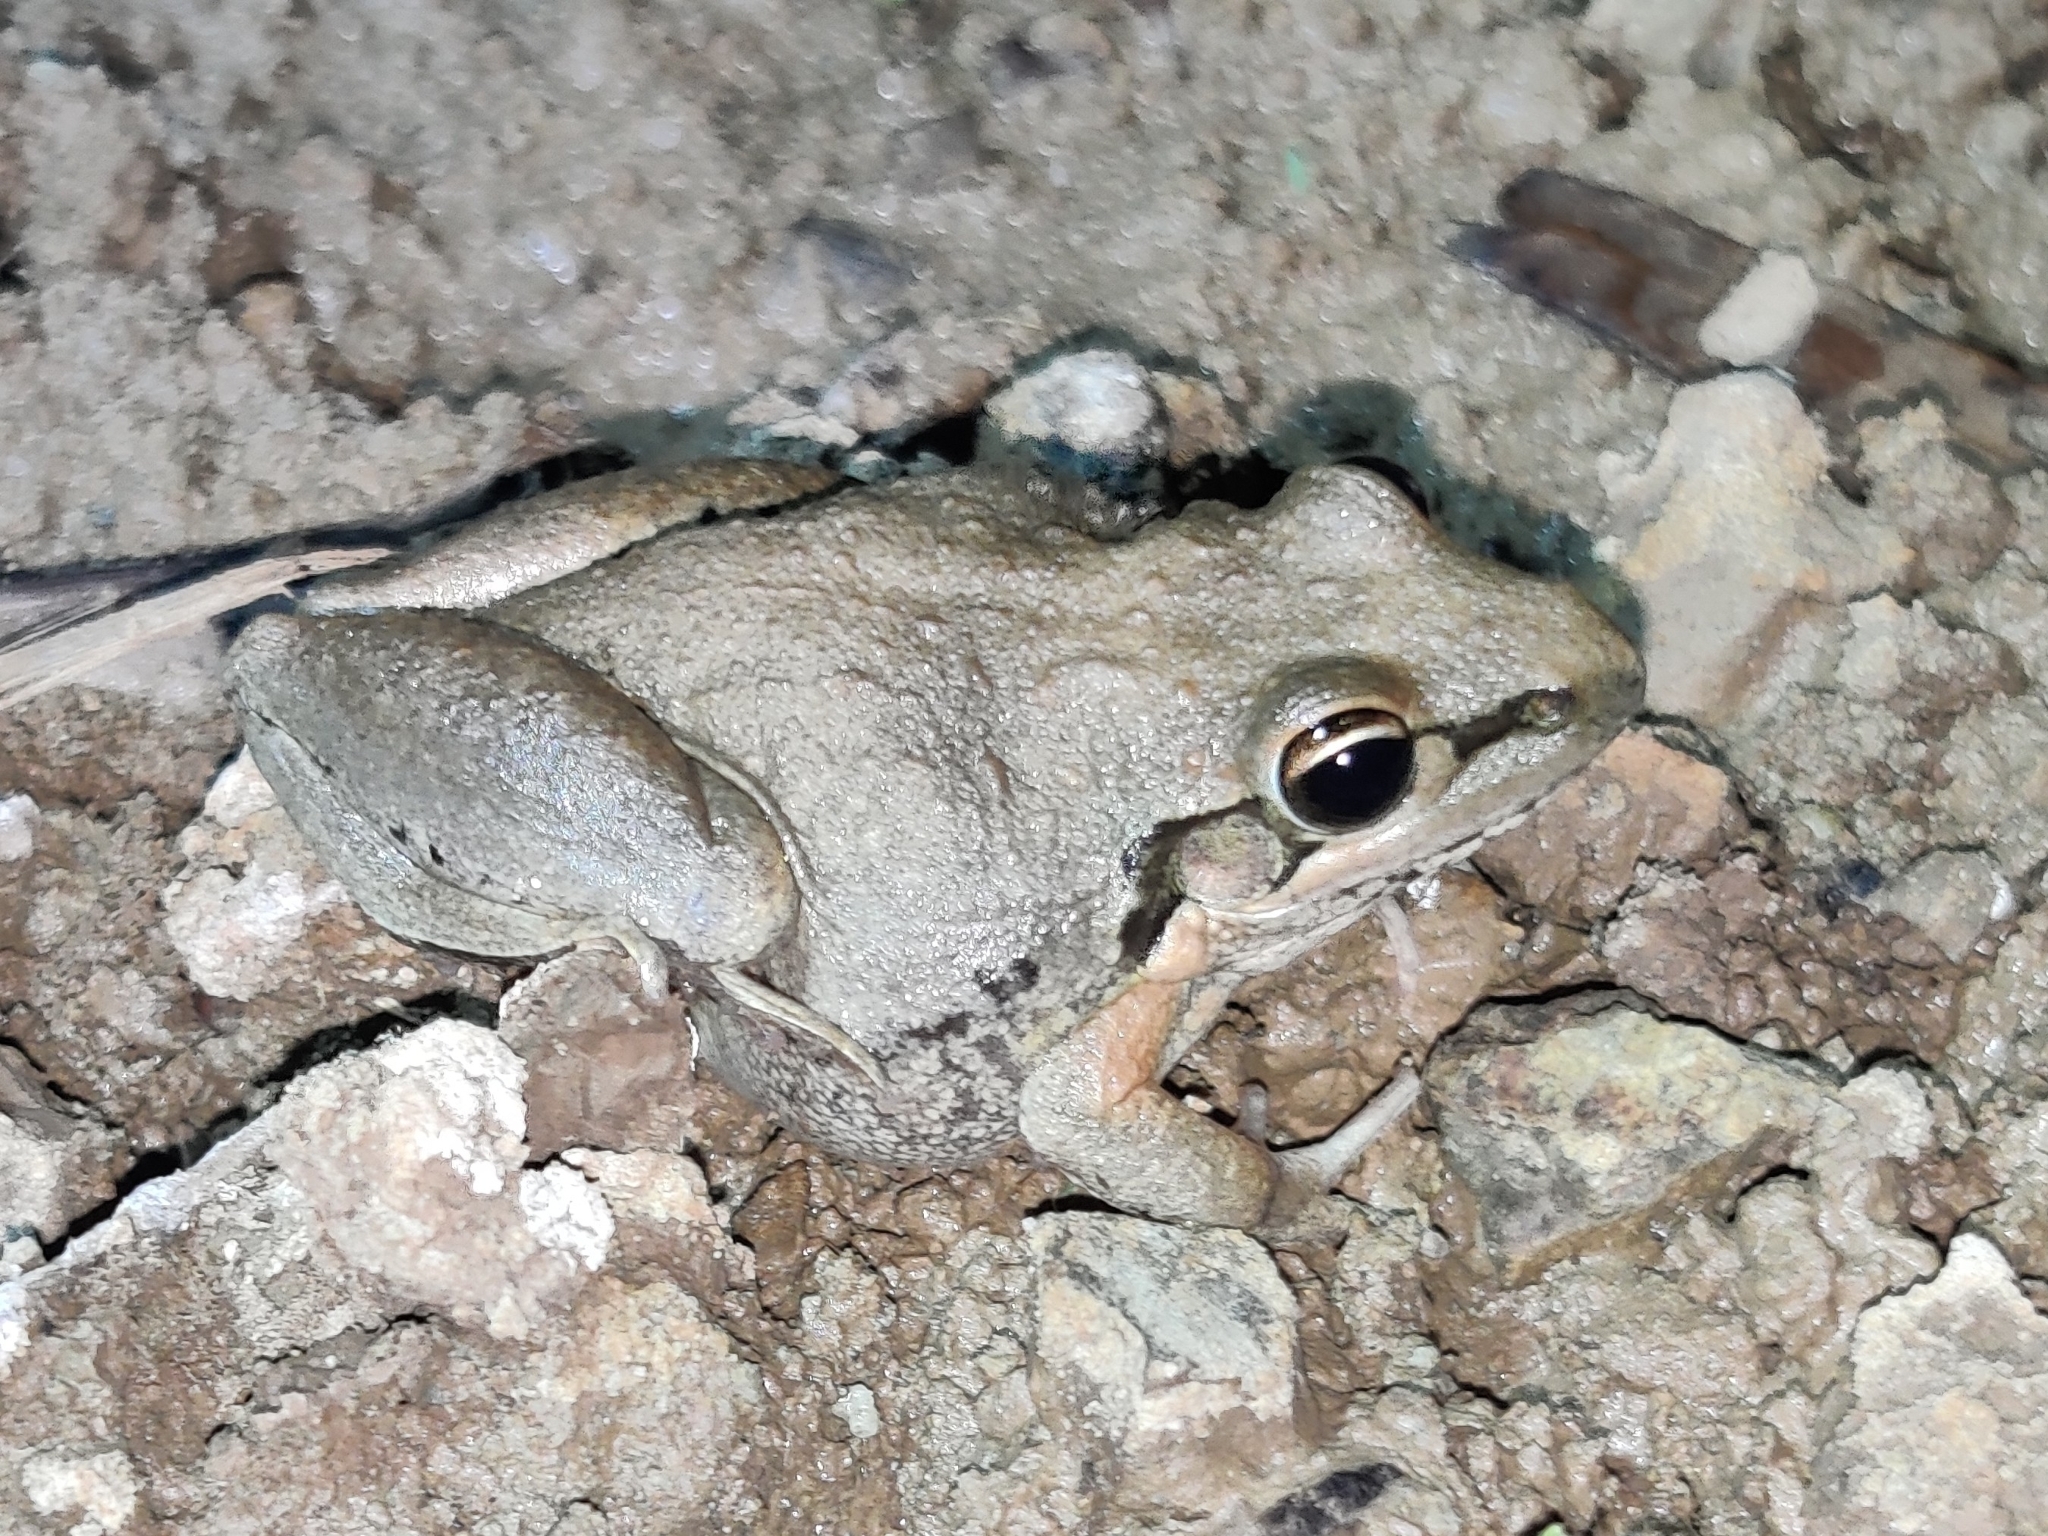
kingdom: Animalia
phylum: Chordata
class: Amphibia
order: Anura
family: Pelodryadidae
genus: Litoria
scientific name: Litoria latopalmata
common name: Broad-palmed rocket frog
